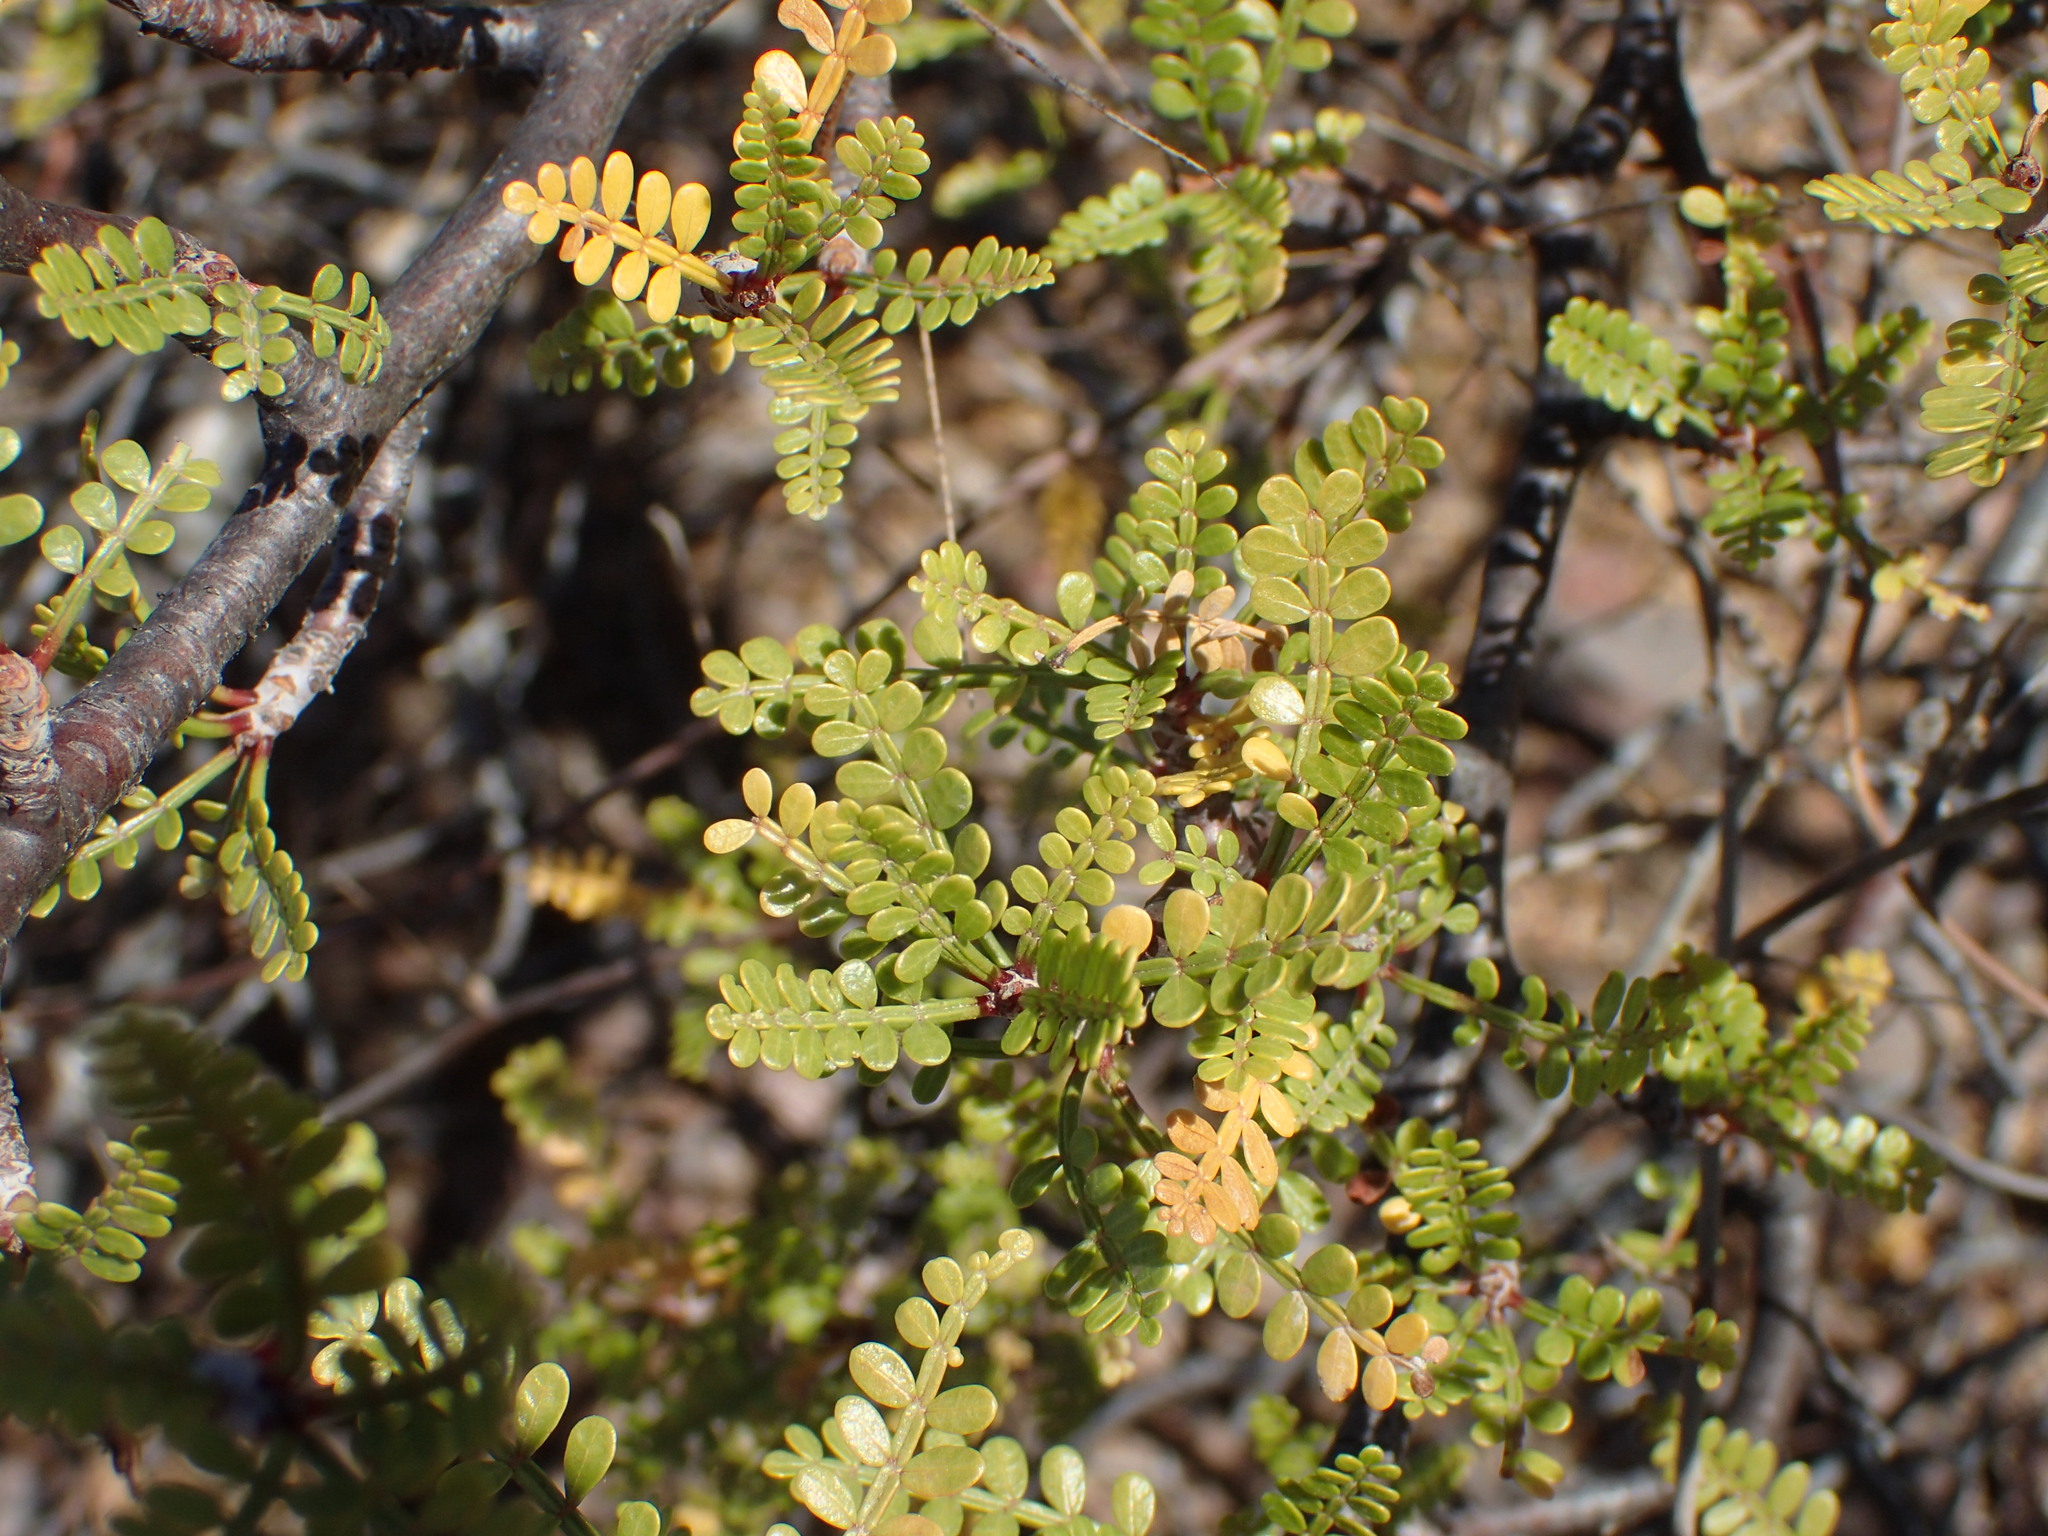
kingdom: Plantae
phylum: Tracheophyta
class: Magnoliopsida
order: Sapindales
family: Burseraceae
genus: Bursera
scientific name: Bursera microphylla
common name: Elephant tree
